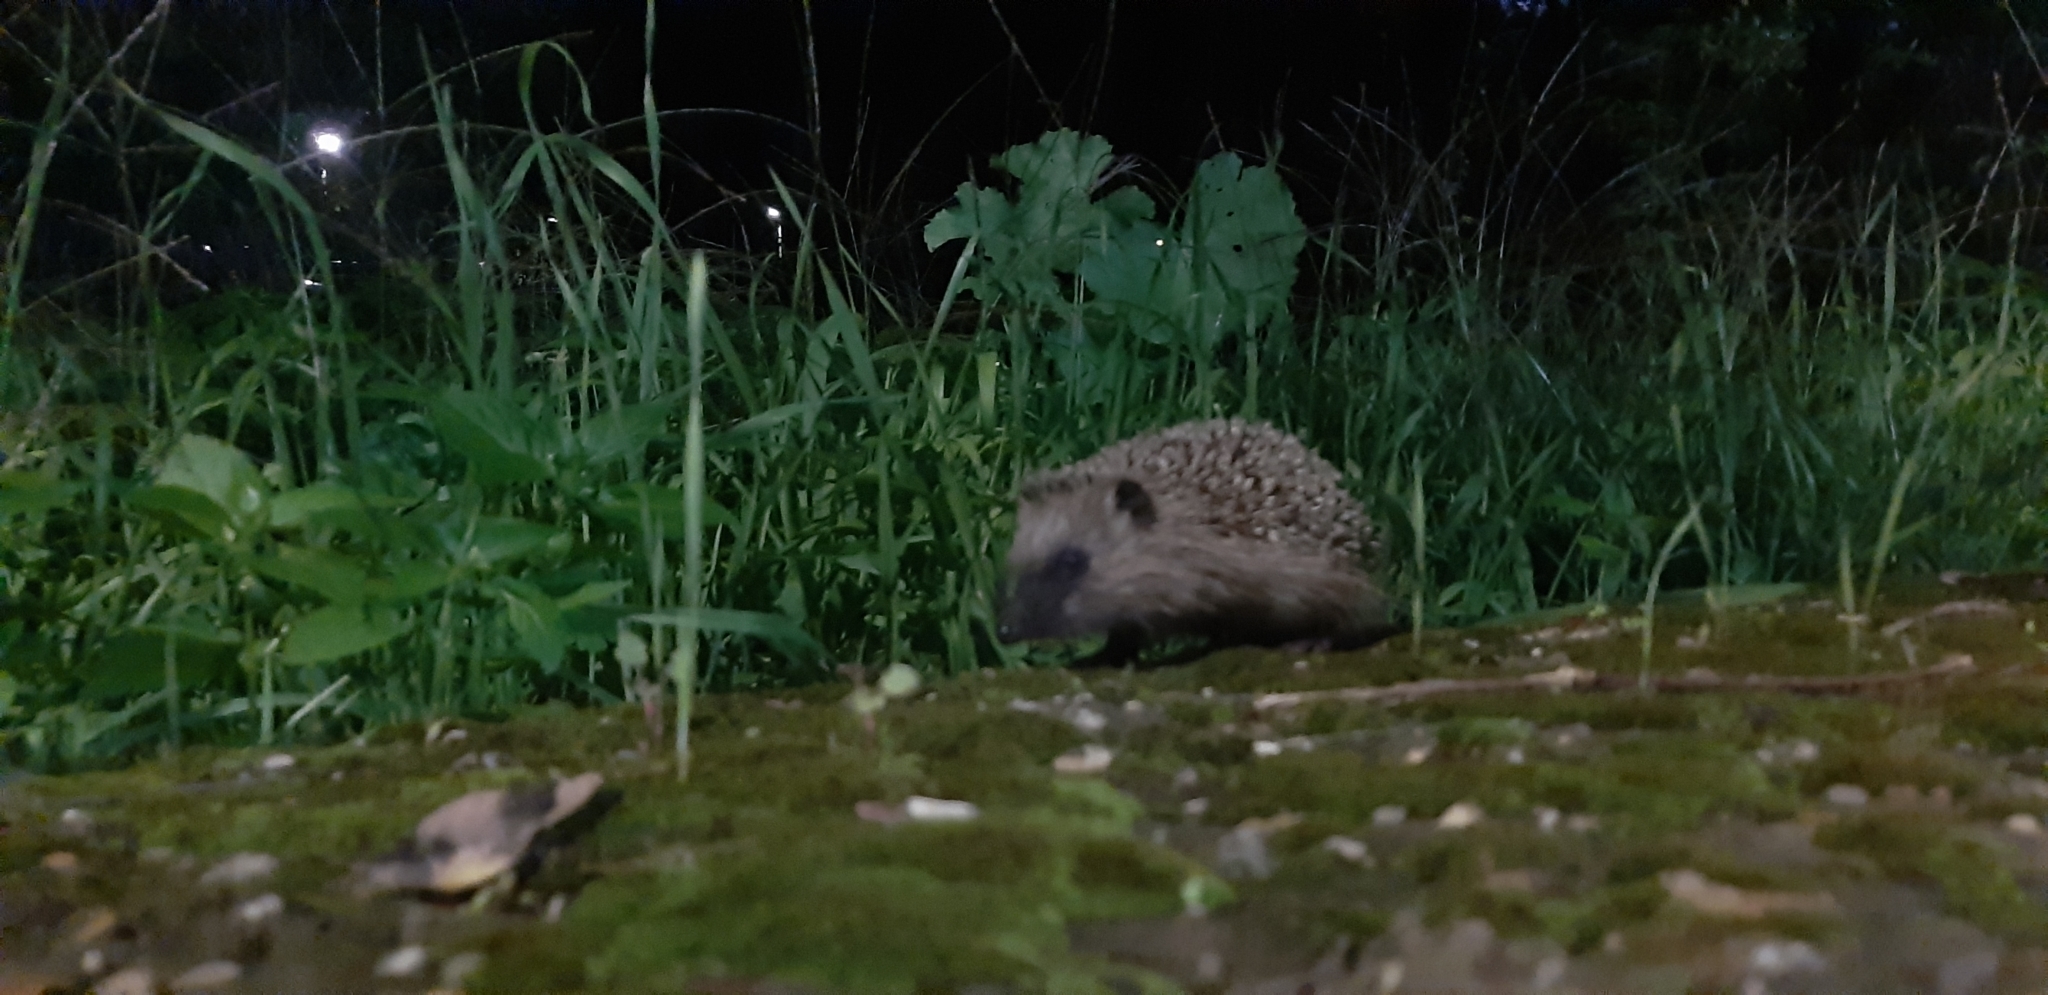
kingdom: Animalia
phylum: Chordata
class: Mammalia
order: Erinaceomorpha
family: Erinaceidae
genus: Erinaceus
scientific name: Erinaceus europaeus
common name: West european hedgehog
